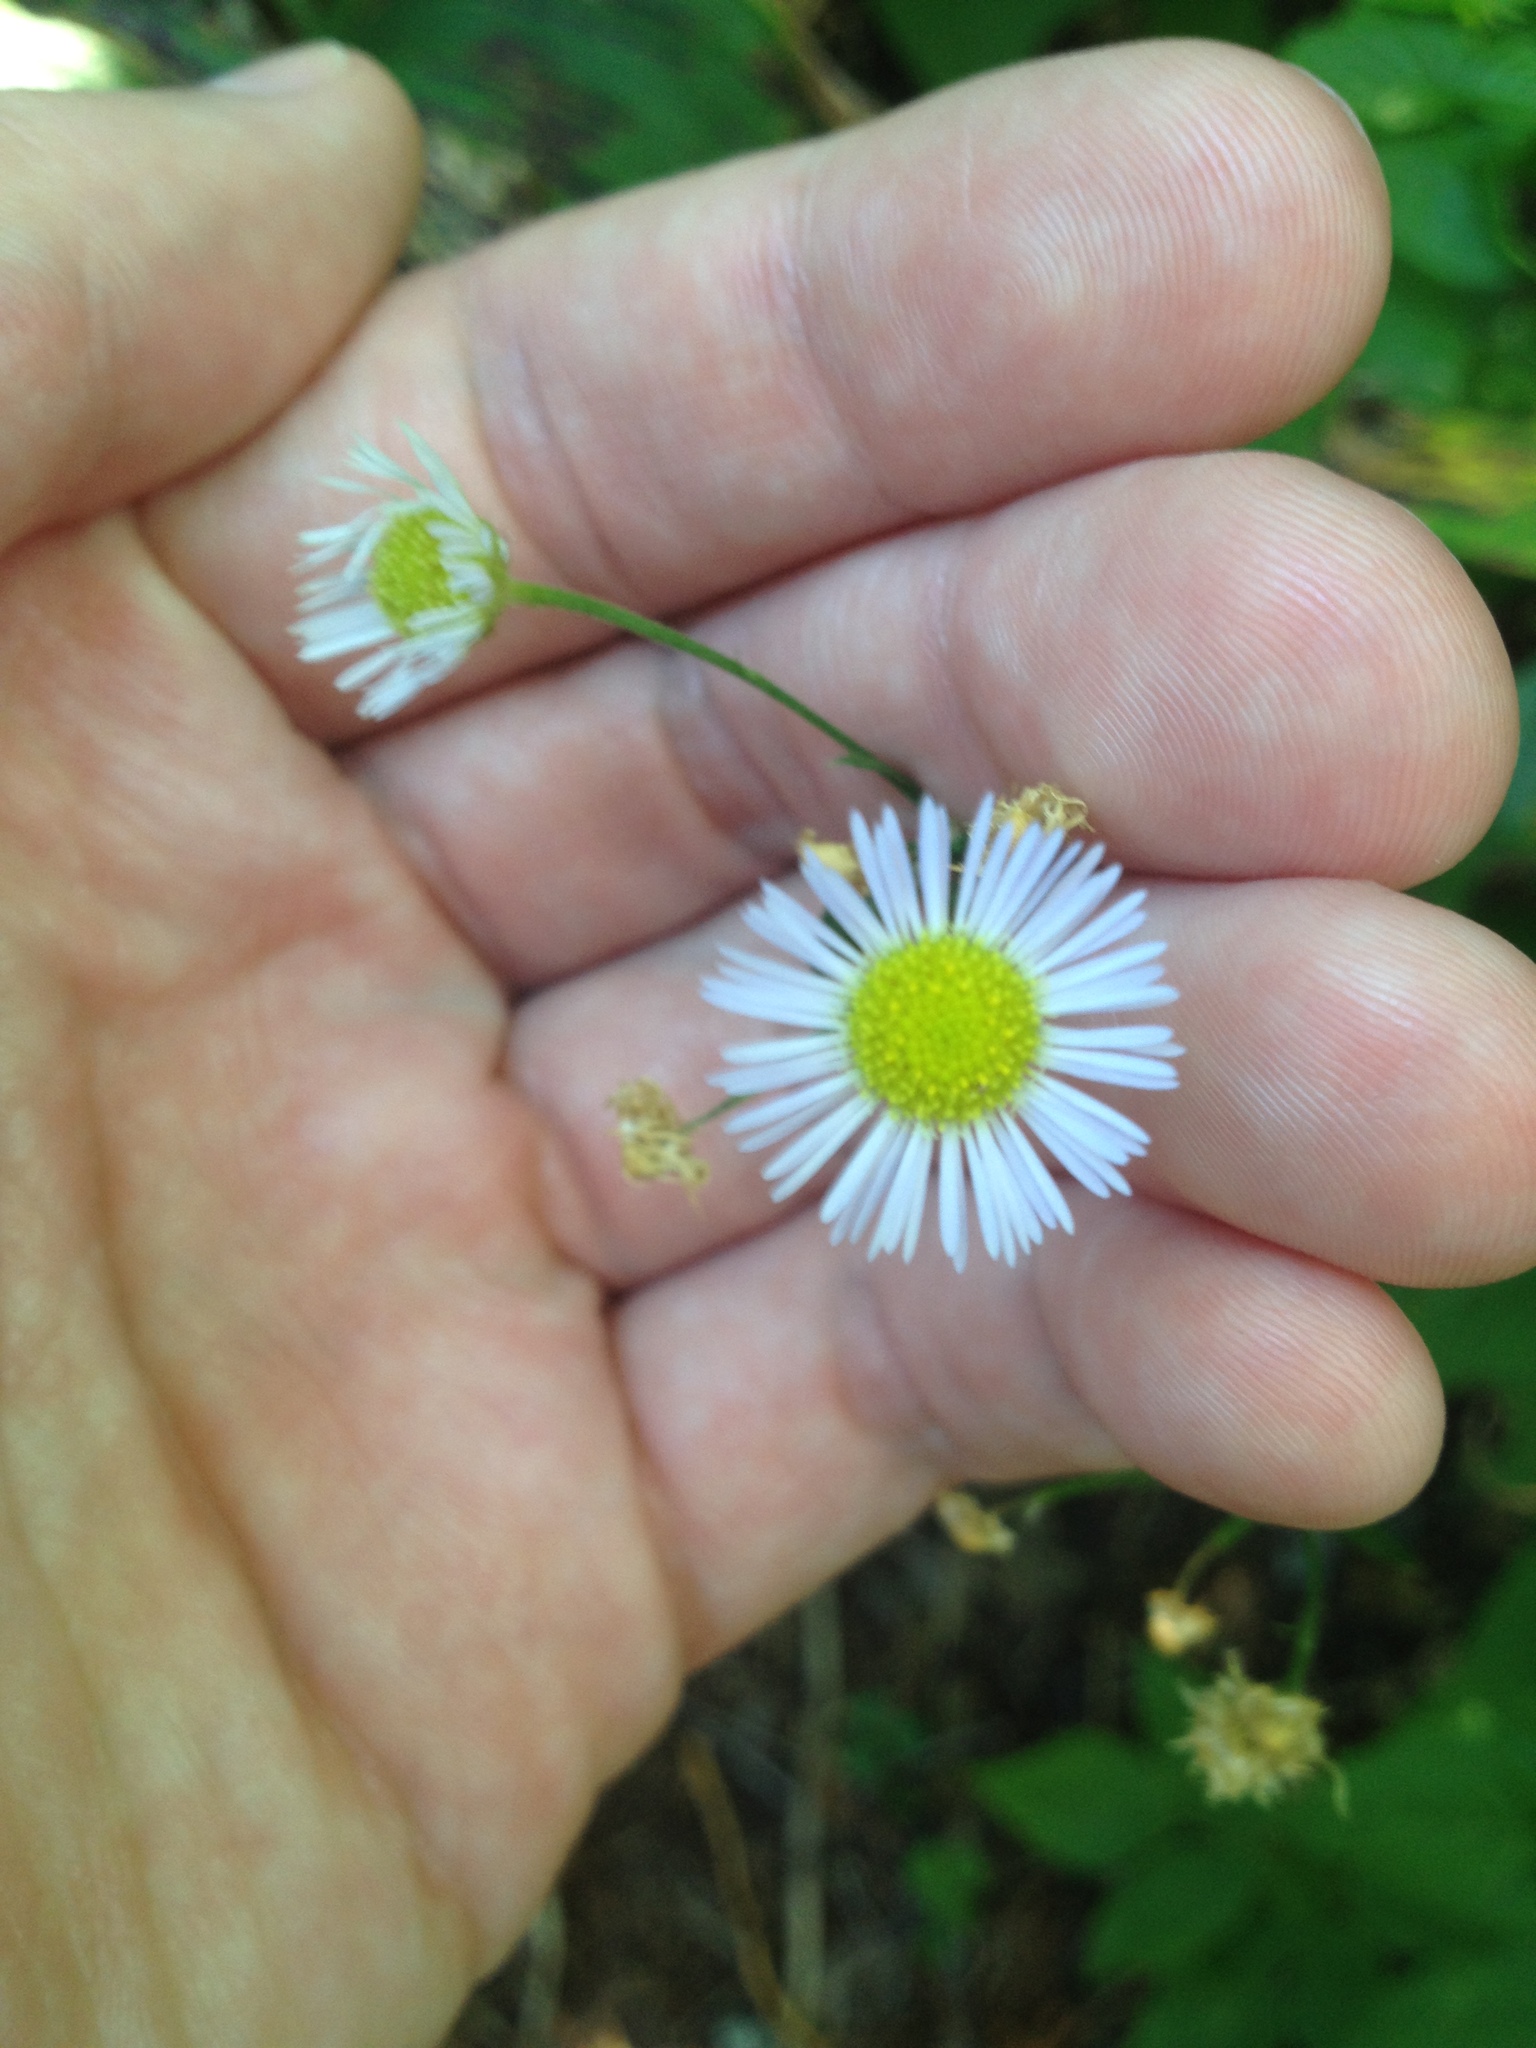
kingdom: Plantae
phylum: Tracheophyta
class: Magnoliopsida
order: Asterales
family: Asteraceae
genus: Erigeron
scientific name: Erigeron strigosus
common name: Common eastern fleabane
